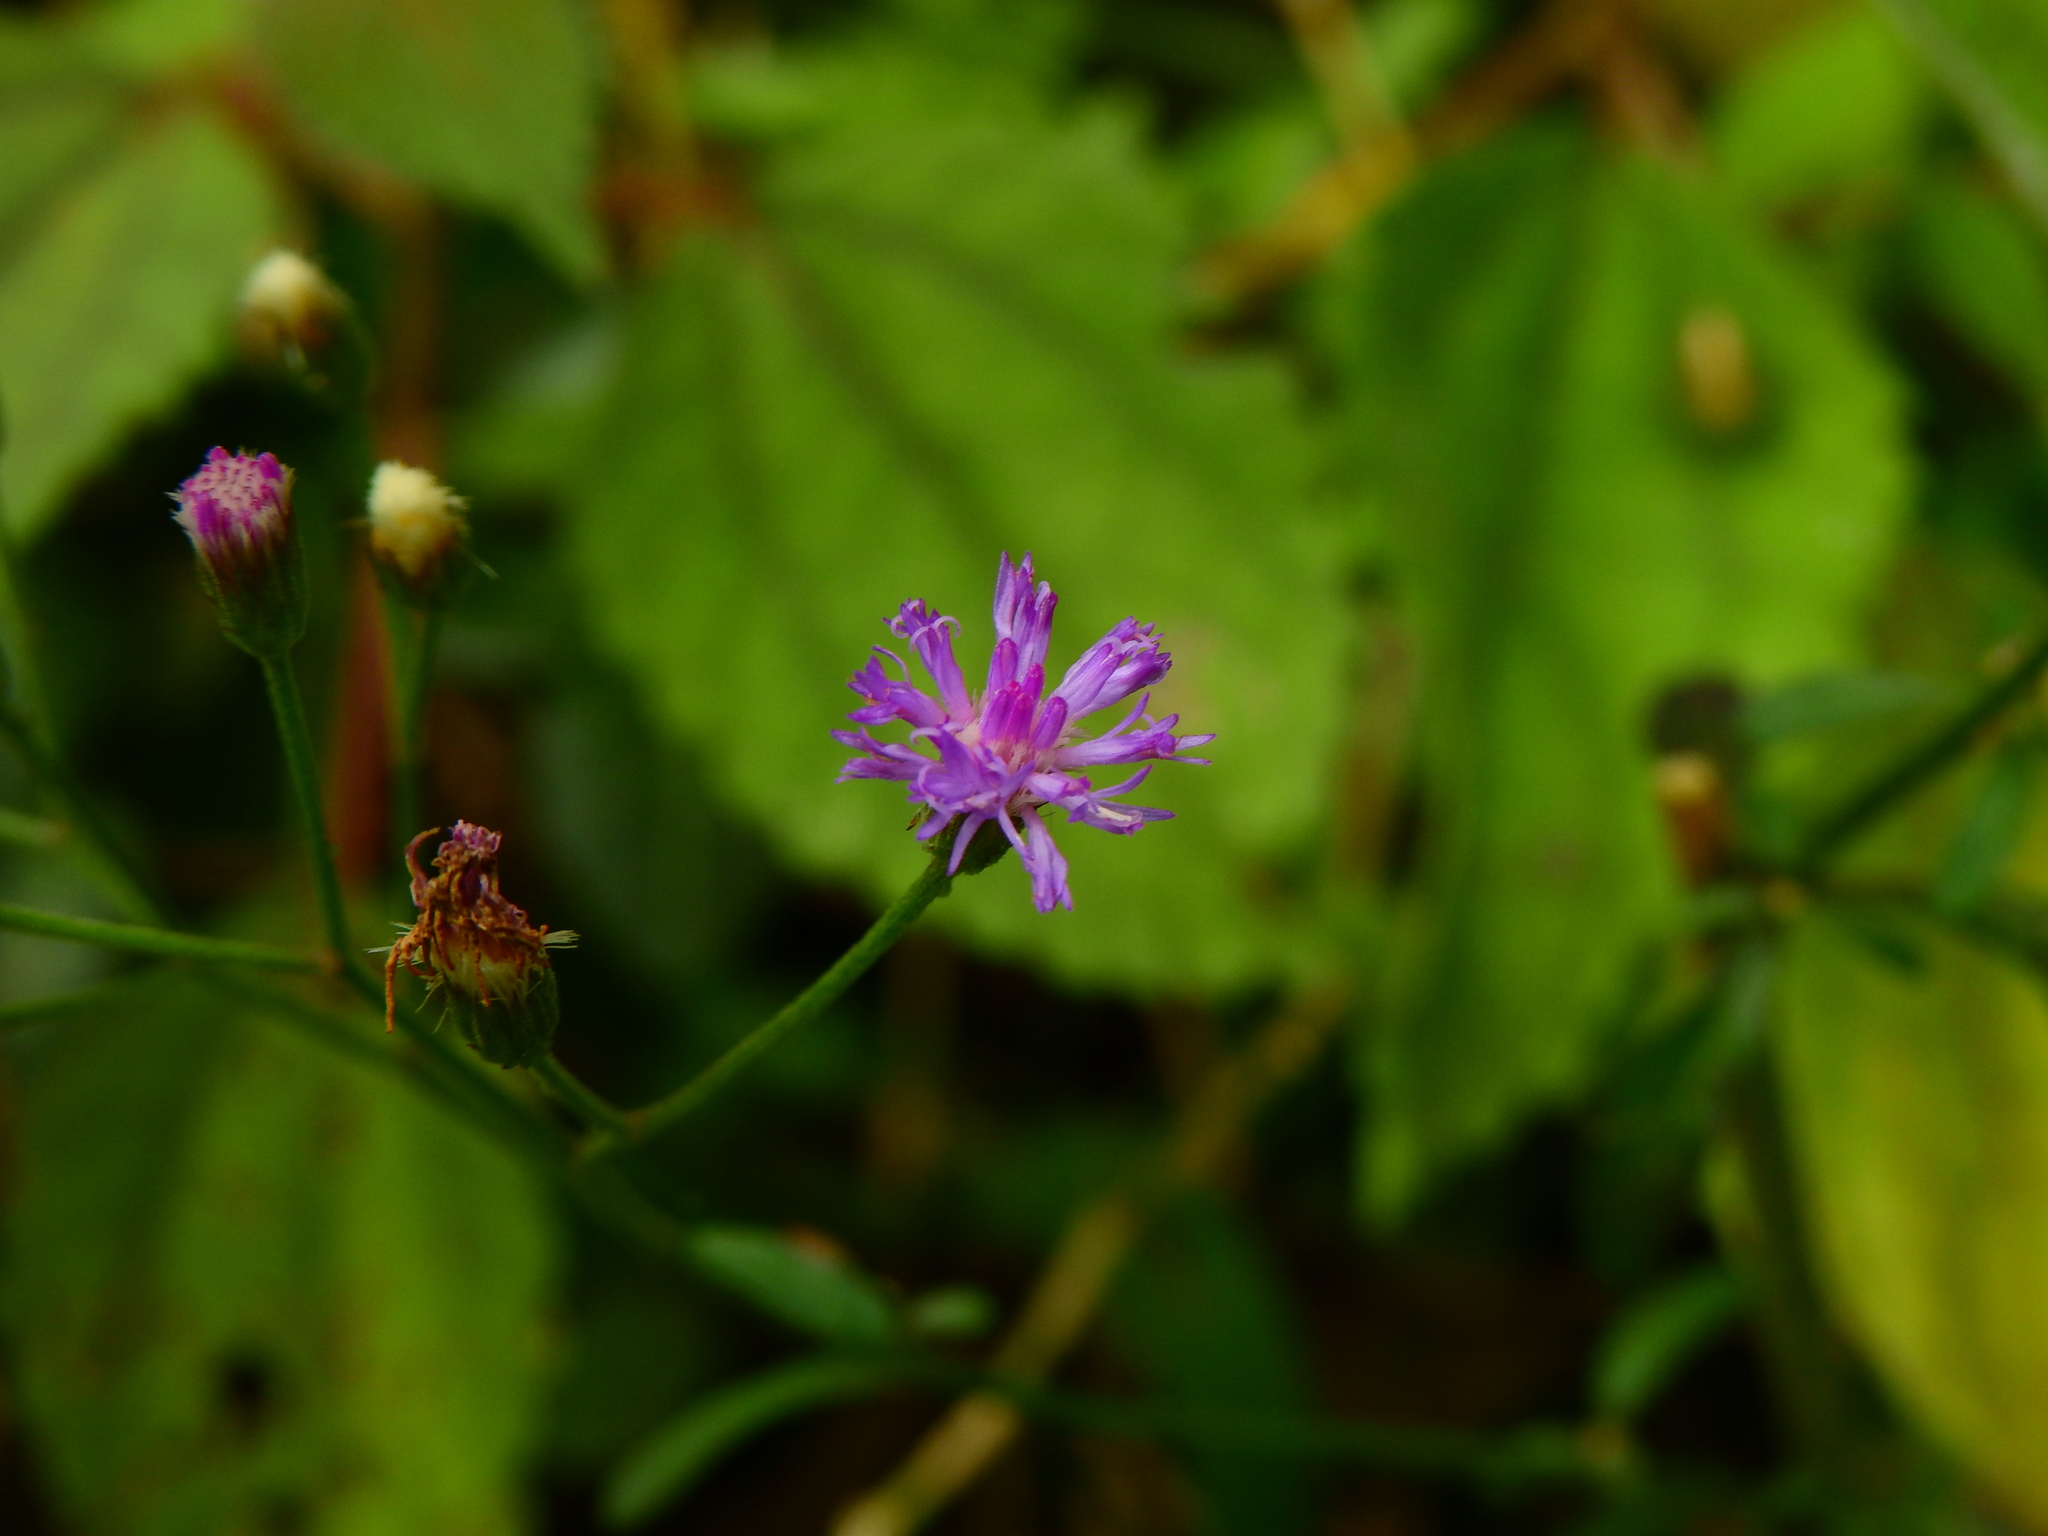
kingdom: Plantae
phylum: Tracheophyta
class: Magnoliopsida
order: Asterales
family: Asteraceae
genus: Cyanthillium
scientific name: Cyanthillium cinereum
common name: Little ironweed
